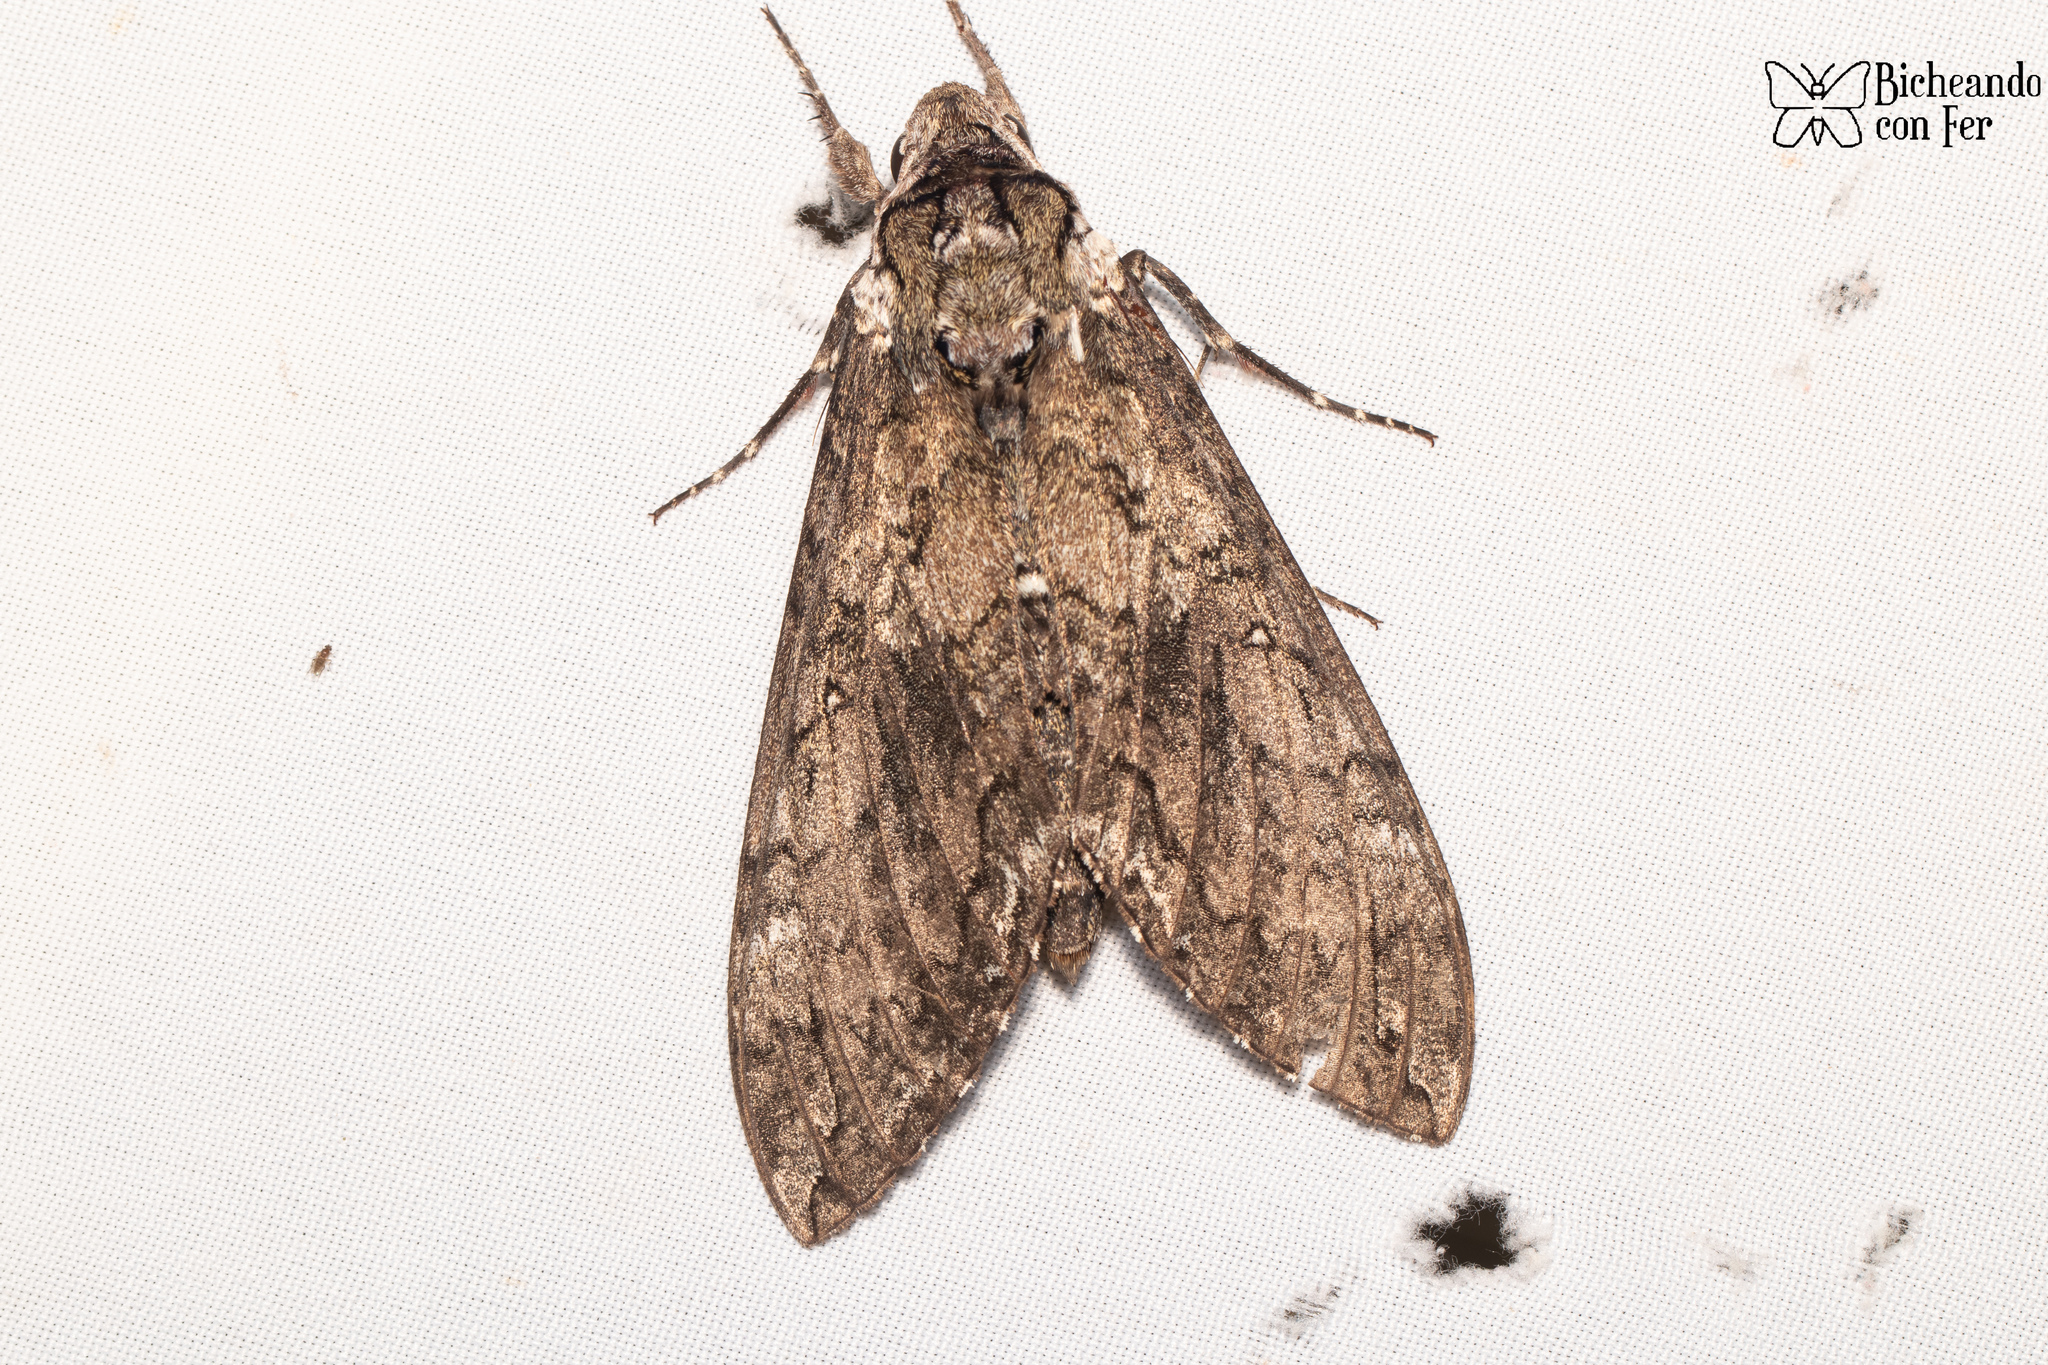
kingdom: Animalia
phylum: Arthropoda
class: Insecta
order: Lepidoptera
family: Sphingidae
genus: Manduca
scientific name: Manduca sexta
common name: Carolina sphinx
